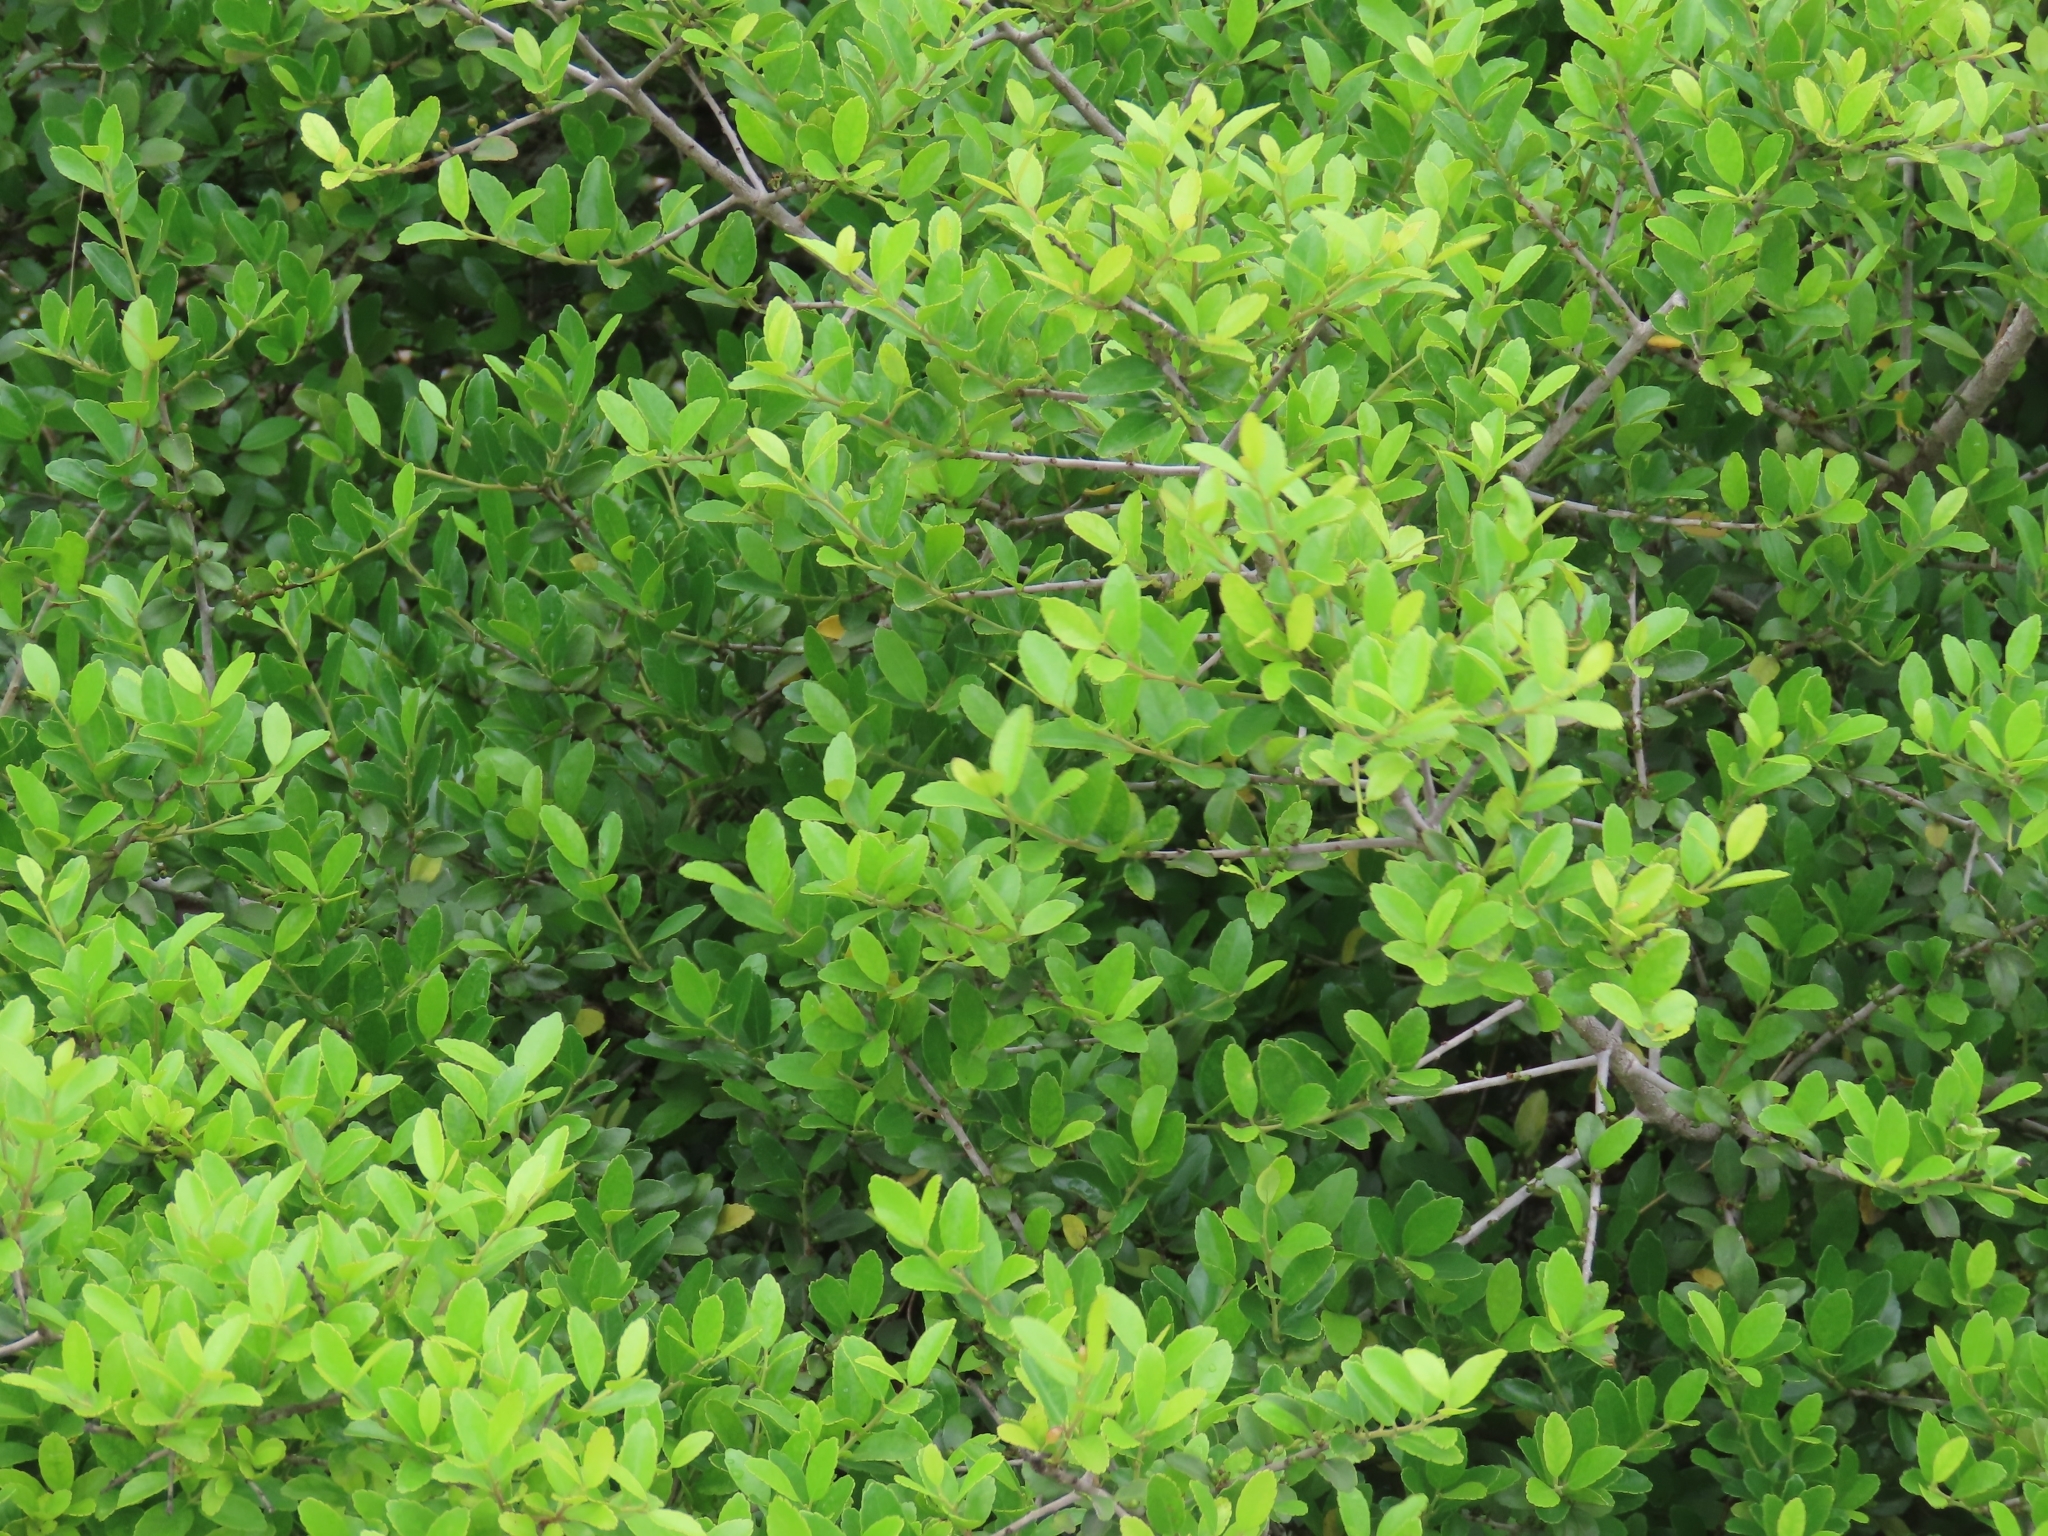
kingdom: Plantae
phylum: Tracheophyta
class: Magnoliopsida
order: Aquifoliales
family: Aquifoliaceae
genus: Ilex
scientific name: Ilex vomitoria
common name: Yaupon holly
